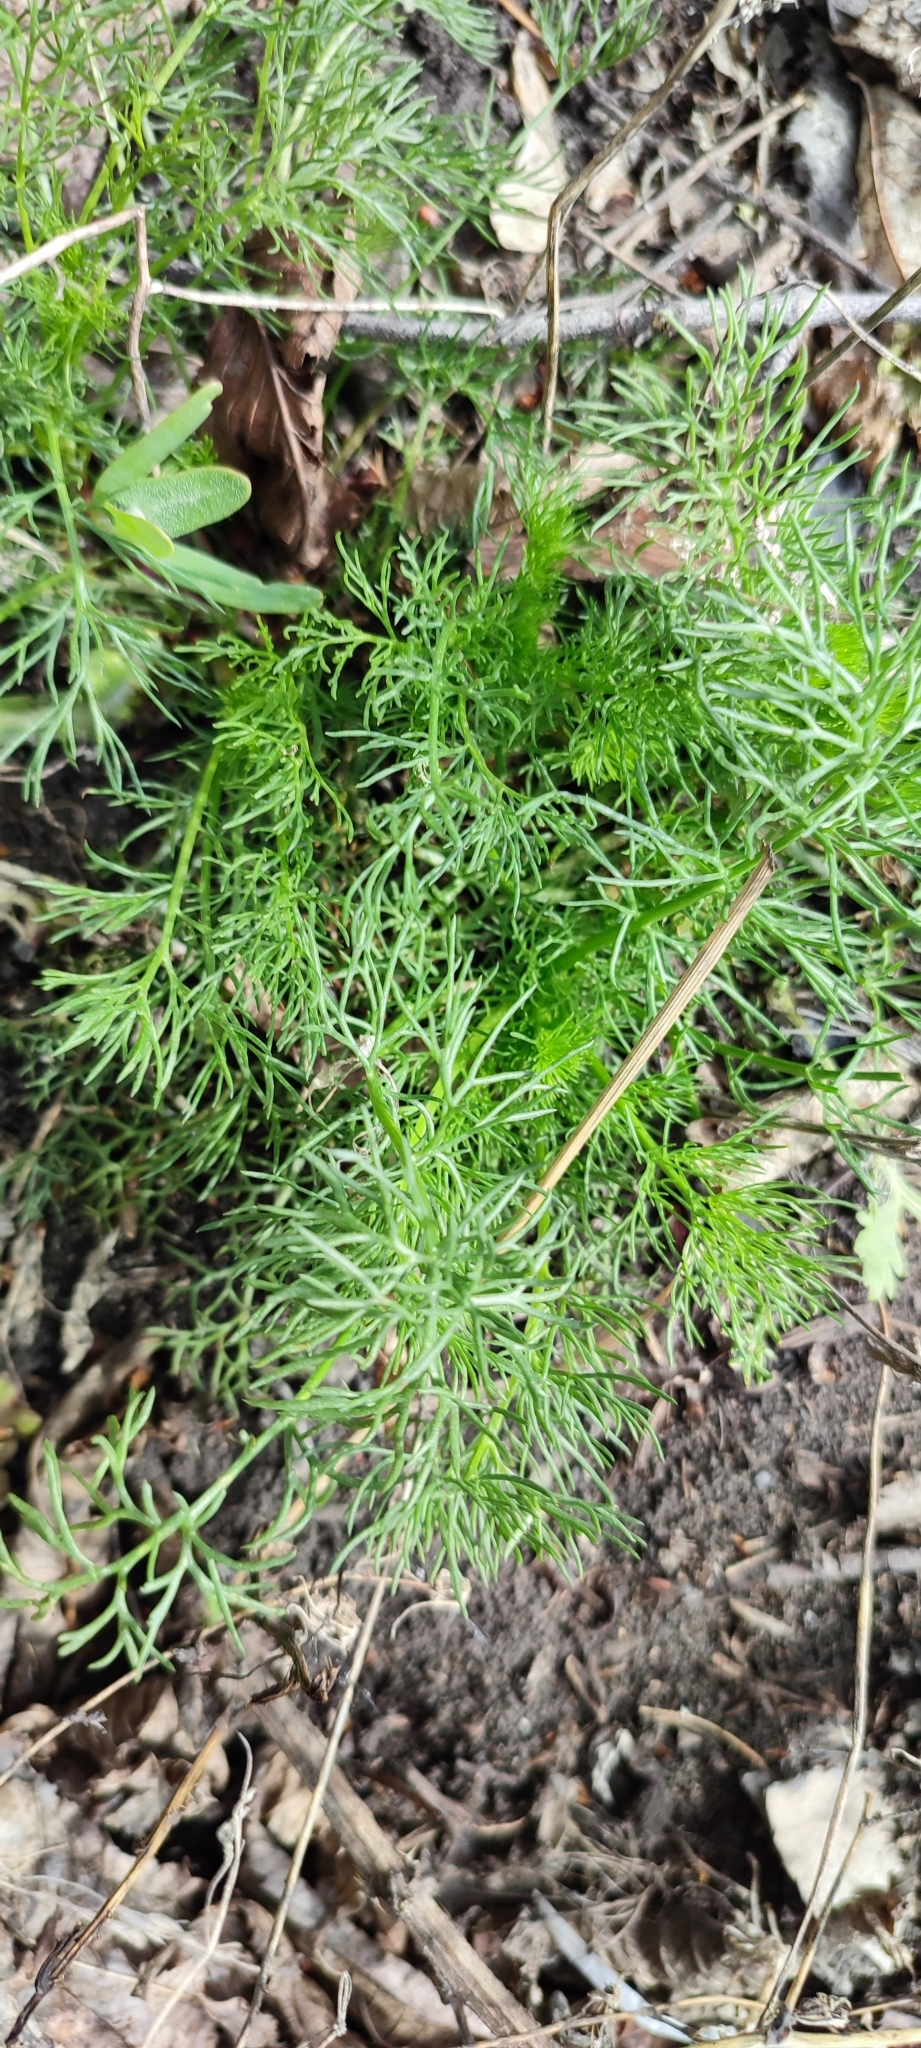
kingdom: Plantae
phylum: Tracheophyta
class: Magnoliopsida
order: Asterales
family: Asteraceae
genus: Tripleurospermum
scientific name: Tripleurospermum inodorum
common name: Scentless mayweed
